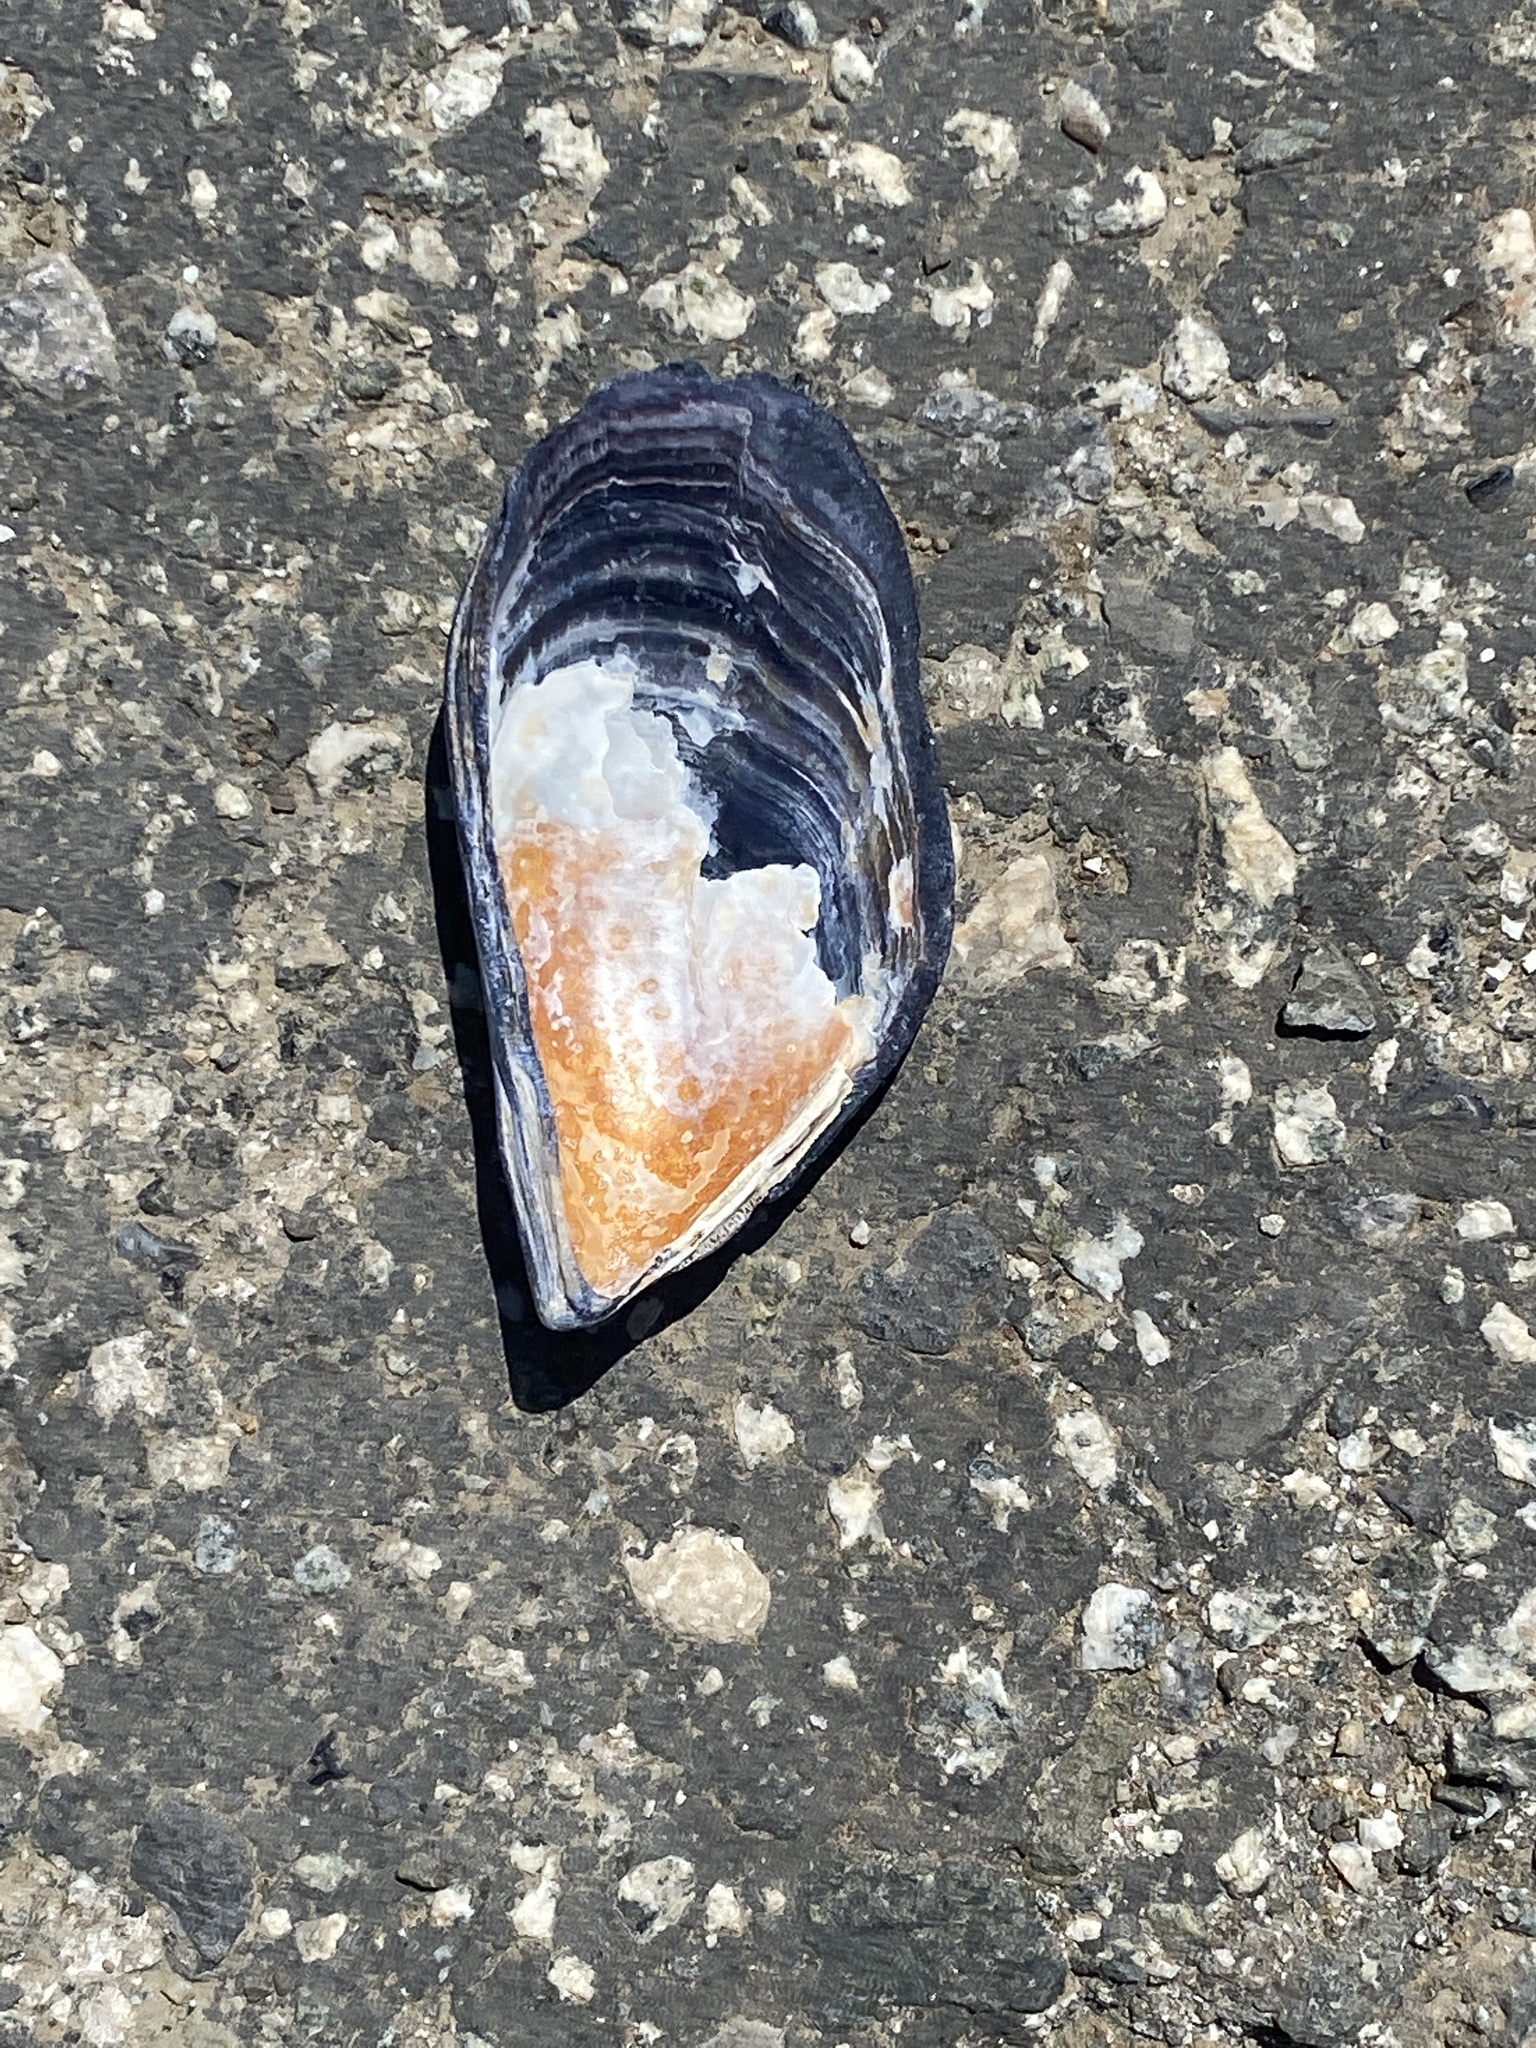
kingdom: Animalia
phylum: Mollusca
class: Bivalvia
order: Mytilida
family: Mytilidae
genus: Mytilus
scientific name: Mytilus
